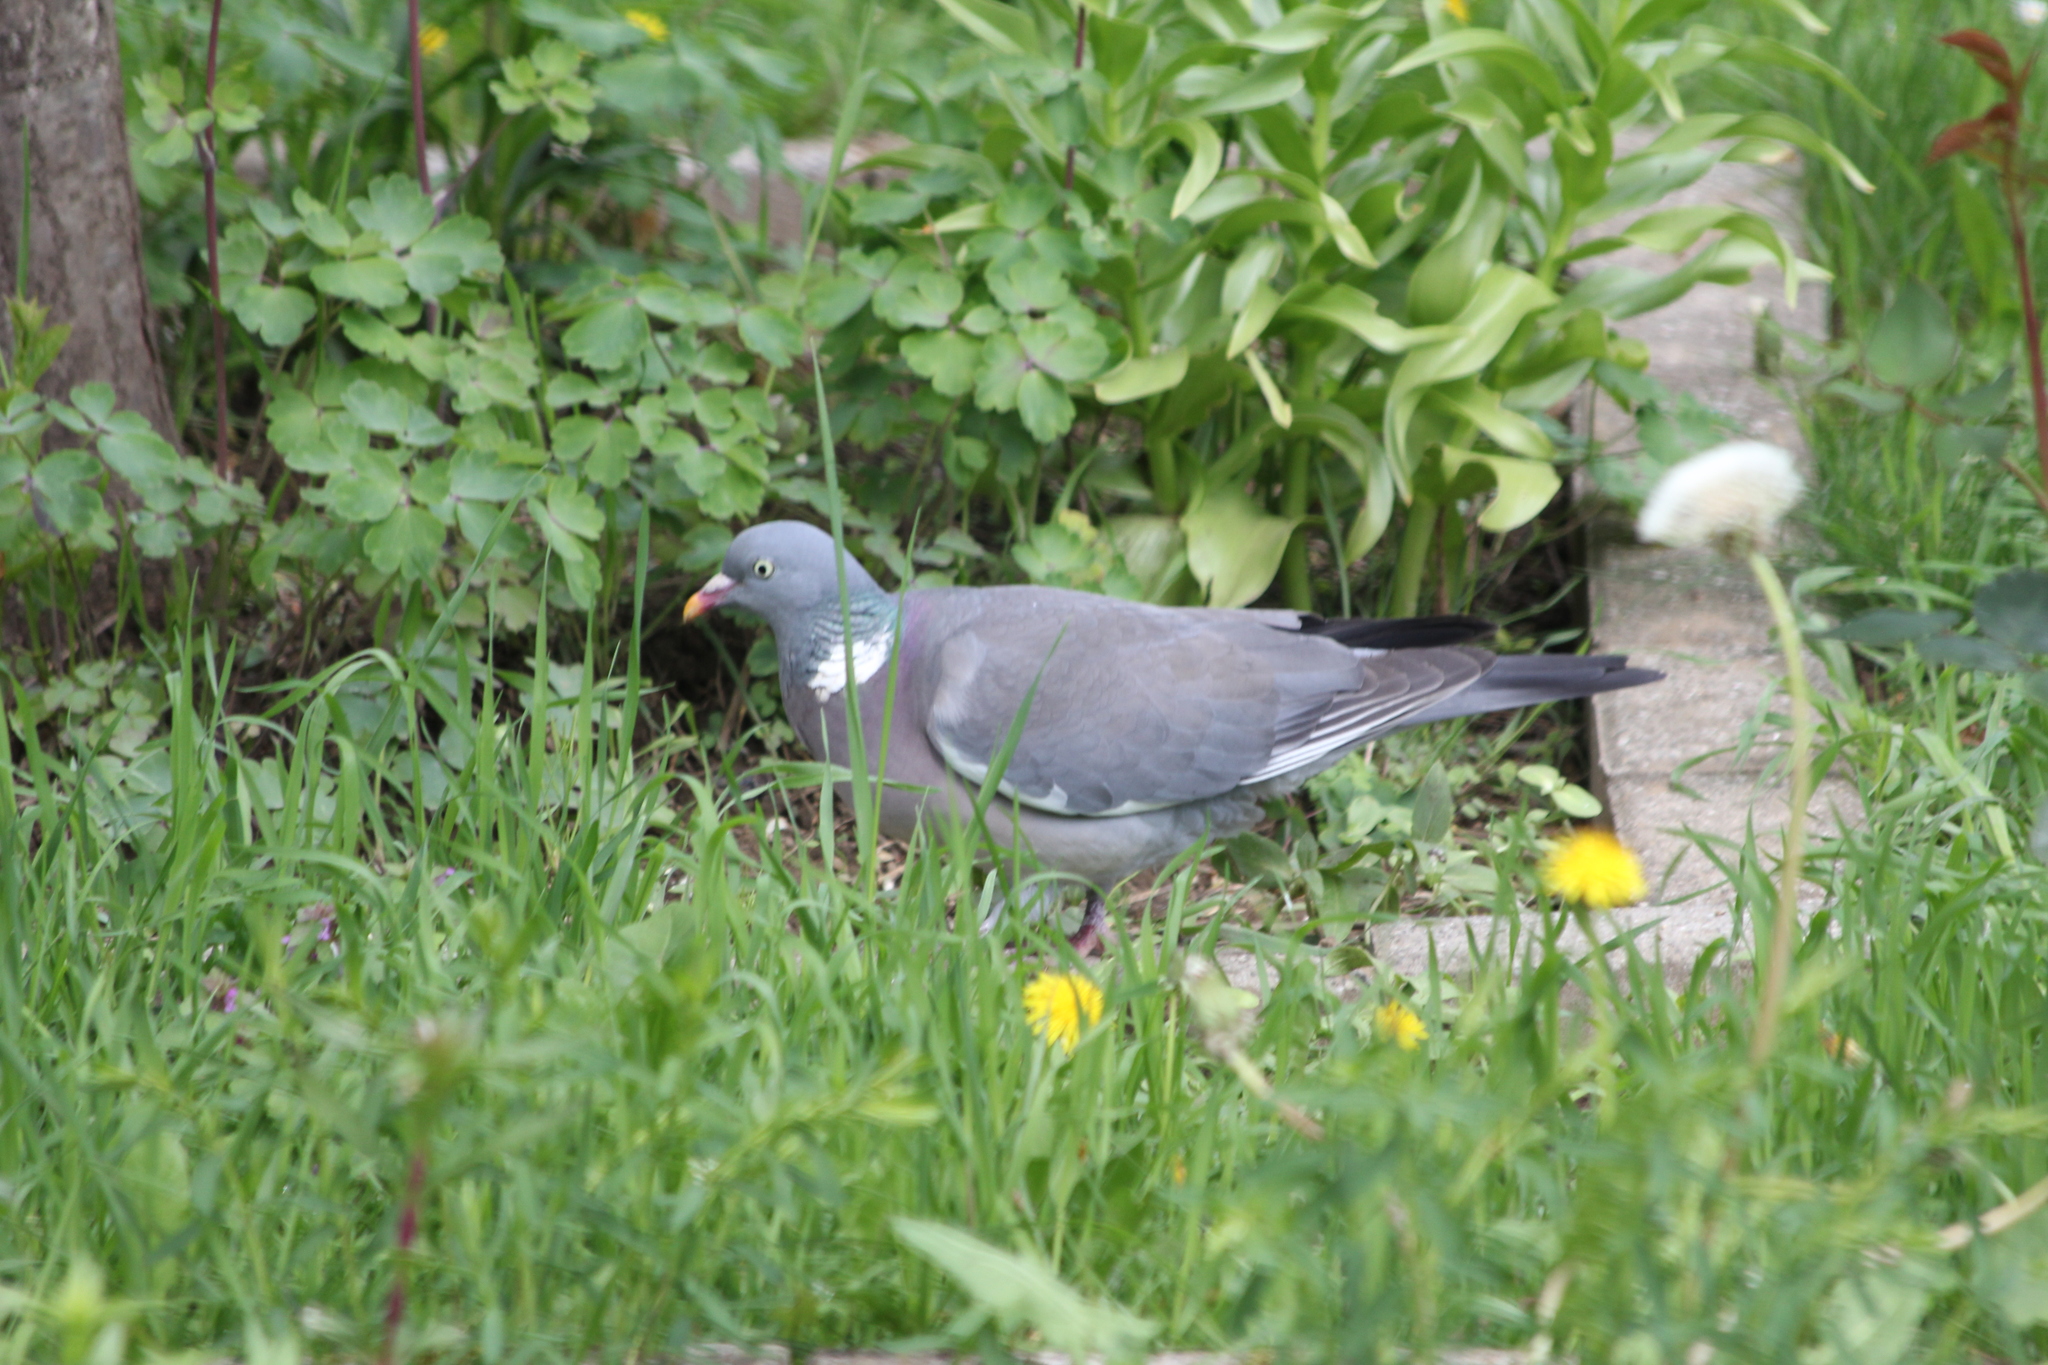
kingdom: Animalia
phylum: Chordata
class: Aves
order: Columbiformes
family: Columbidae
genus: Columba
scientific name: Columba palumbus
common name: Common wood pigeon
